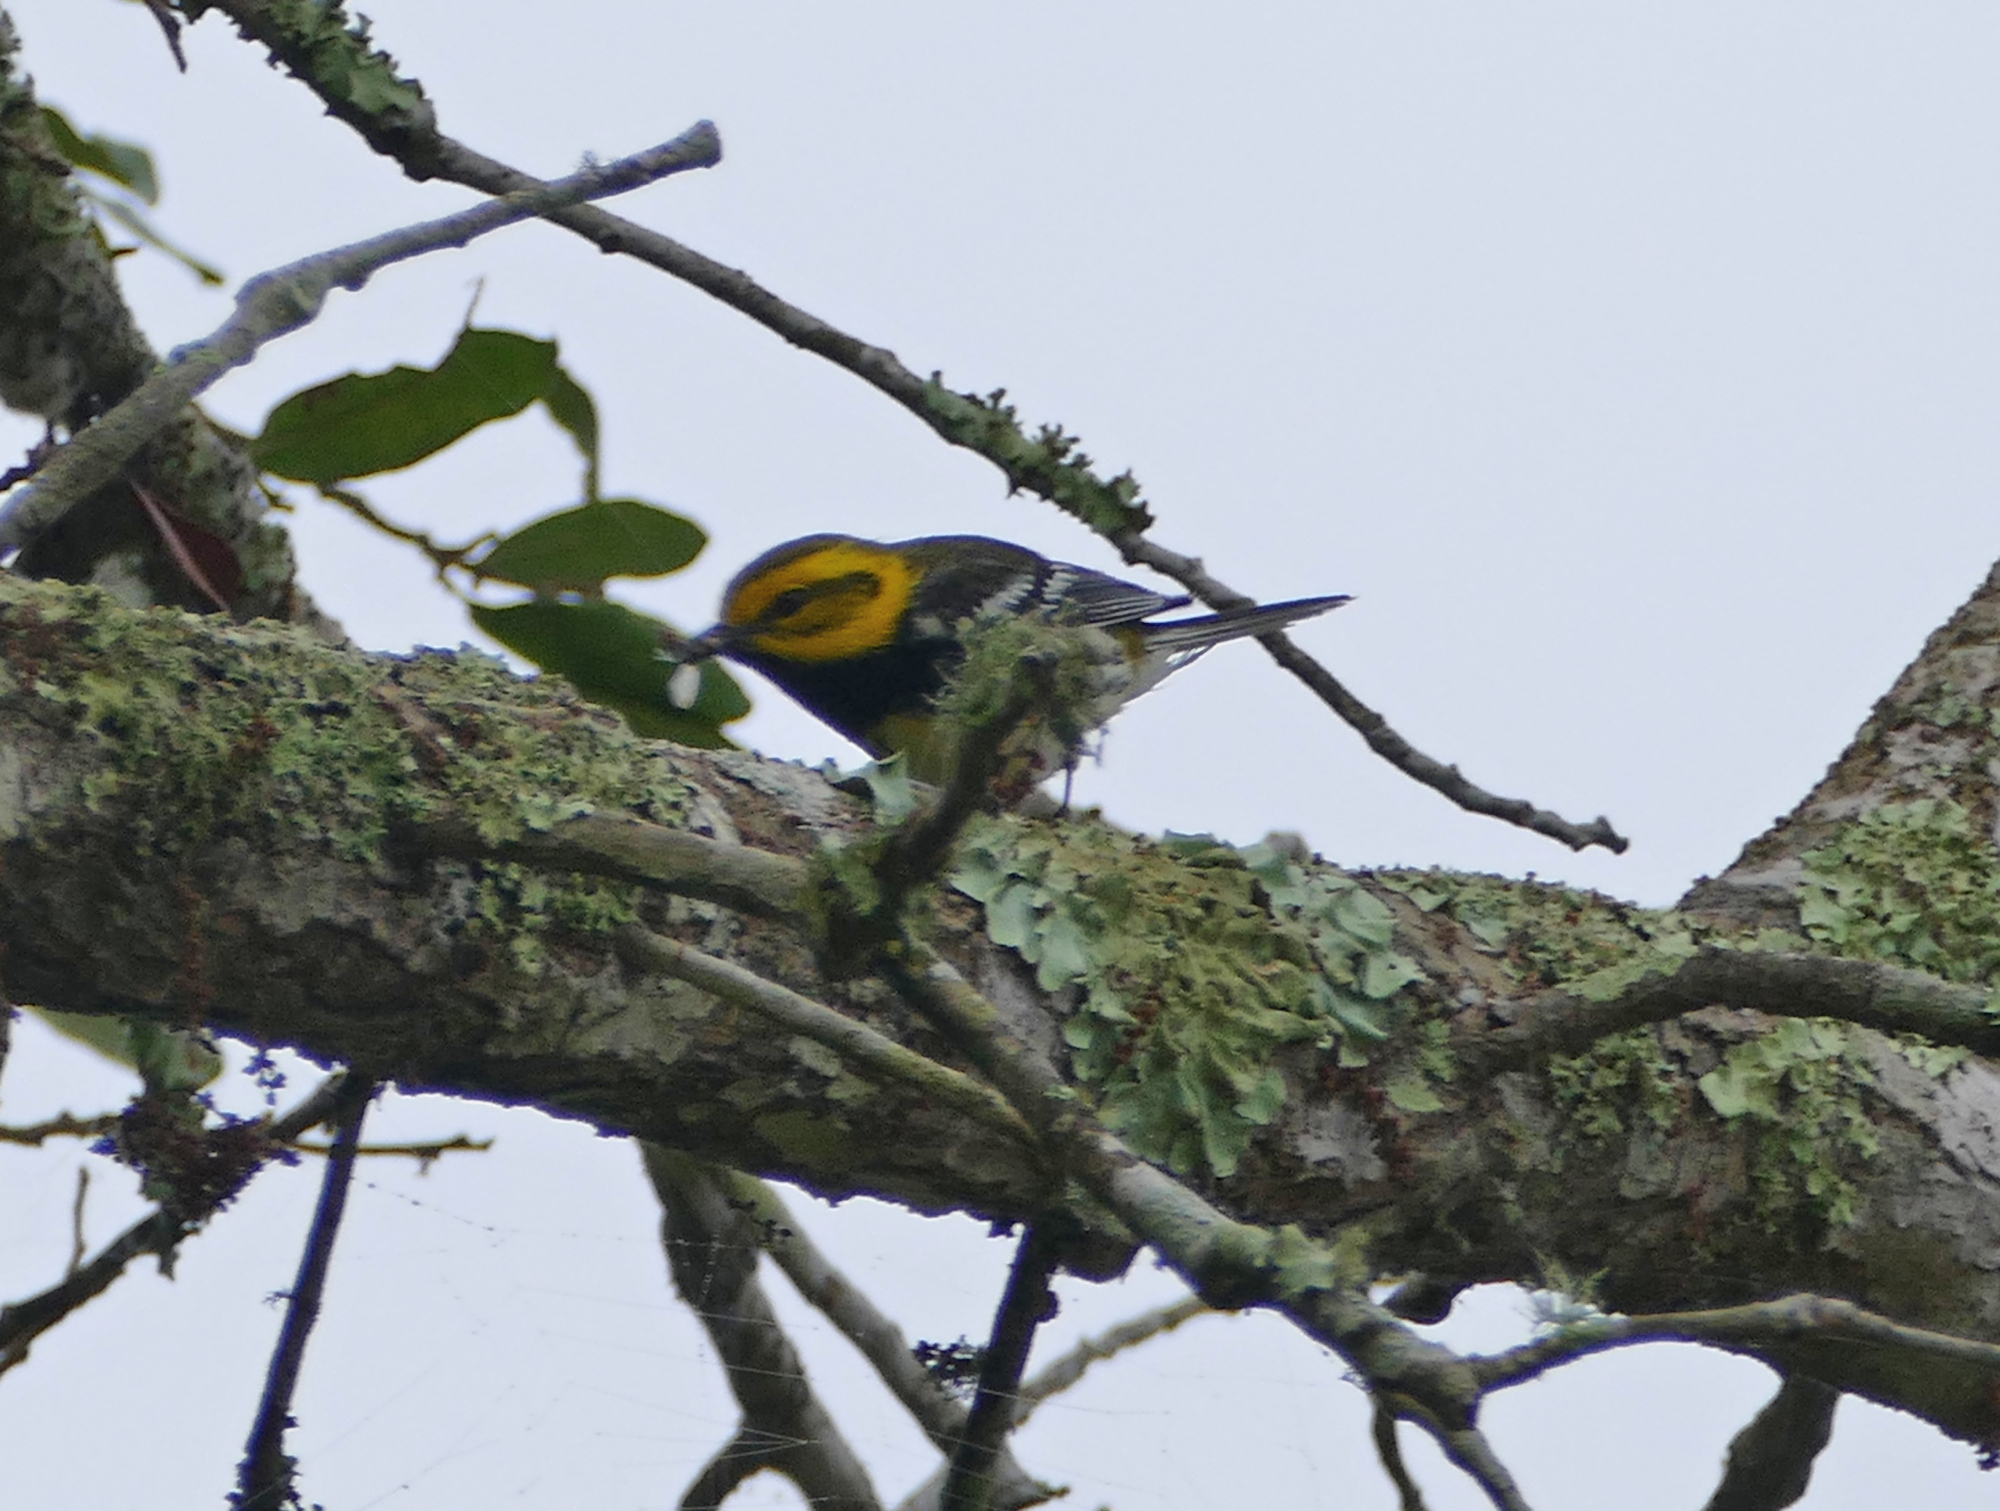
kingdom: Animalia
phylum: Chordata
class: Aves
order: Passeriformes
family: Parulidae
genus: Setophaga
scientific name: Setophaga virens
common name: Black-throated green warbler
